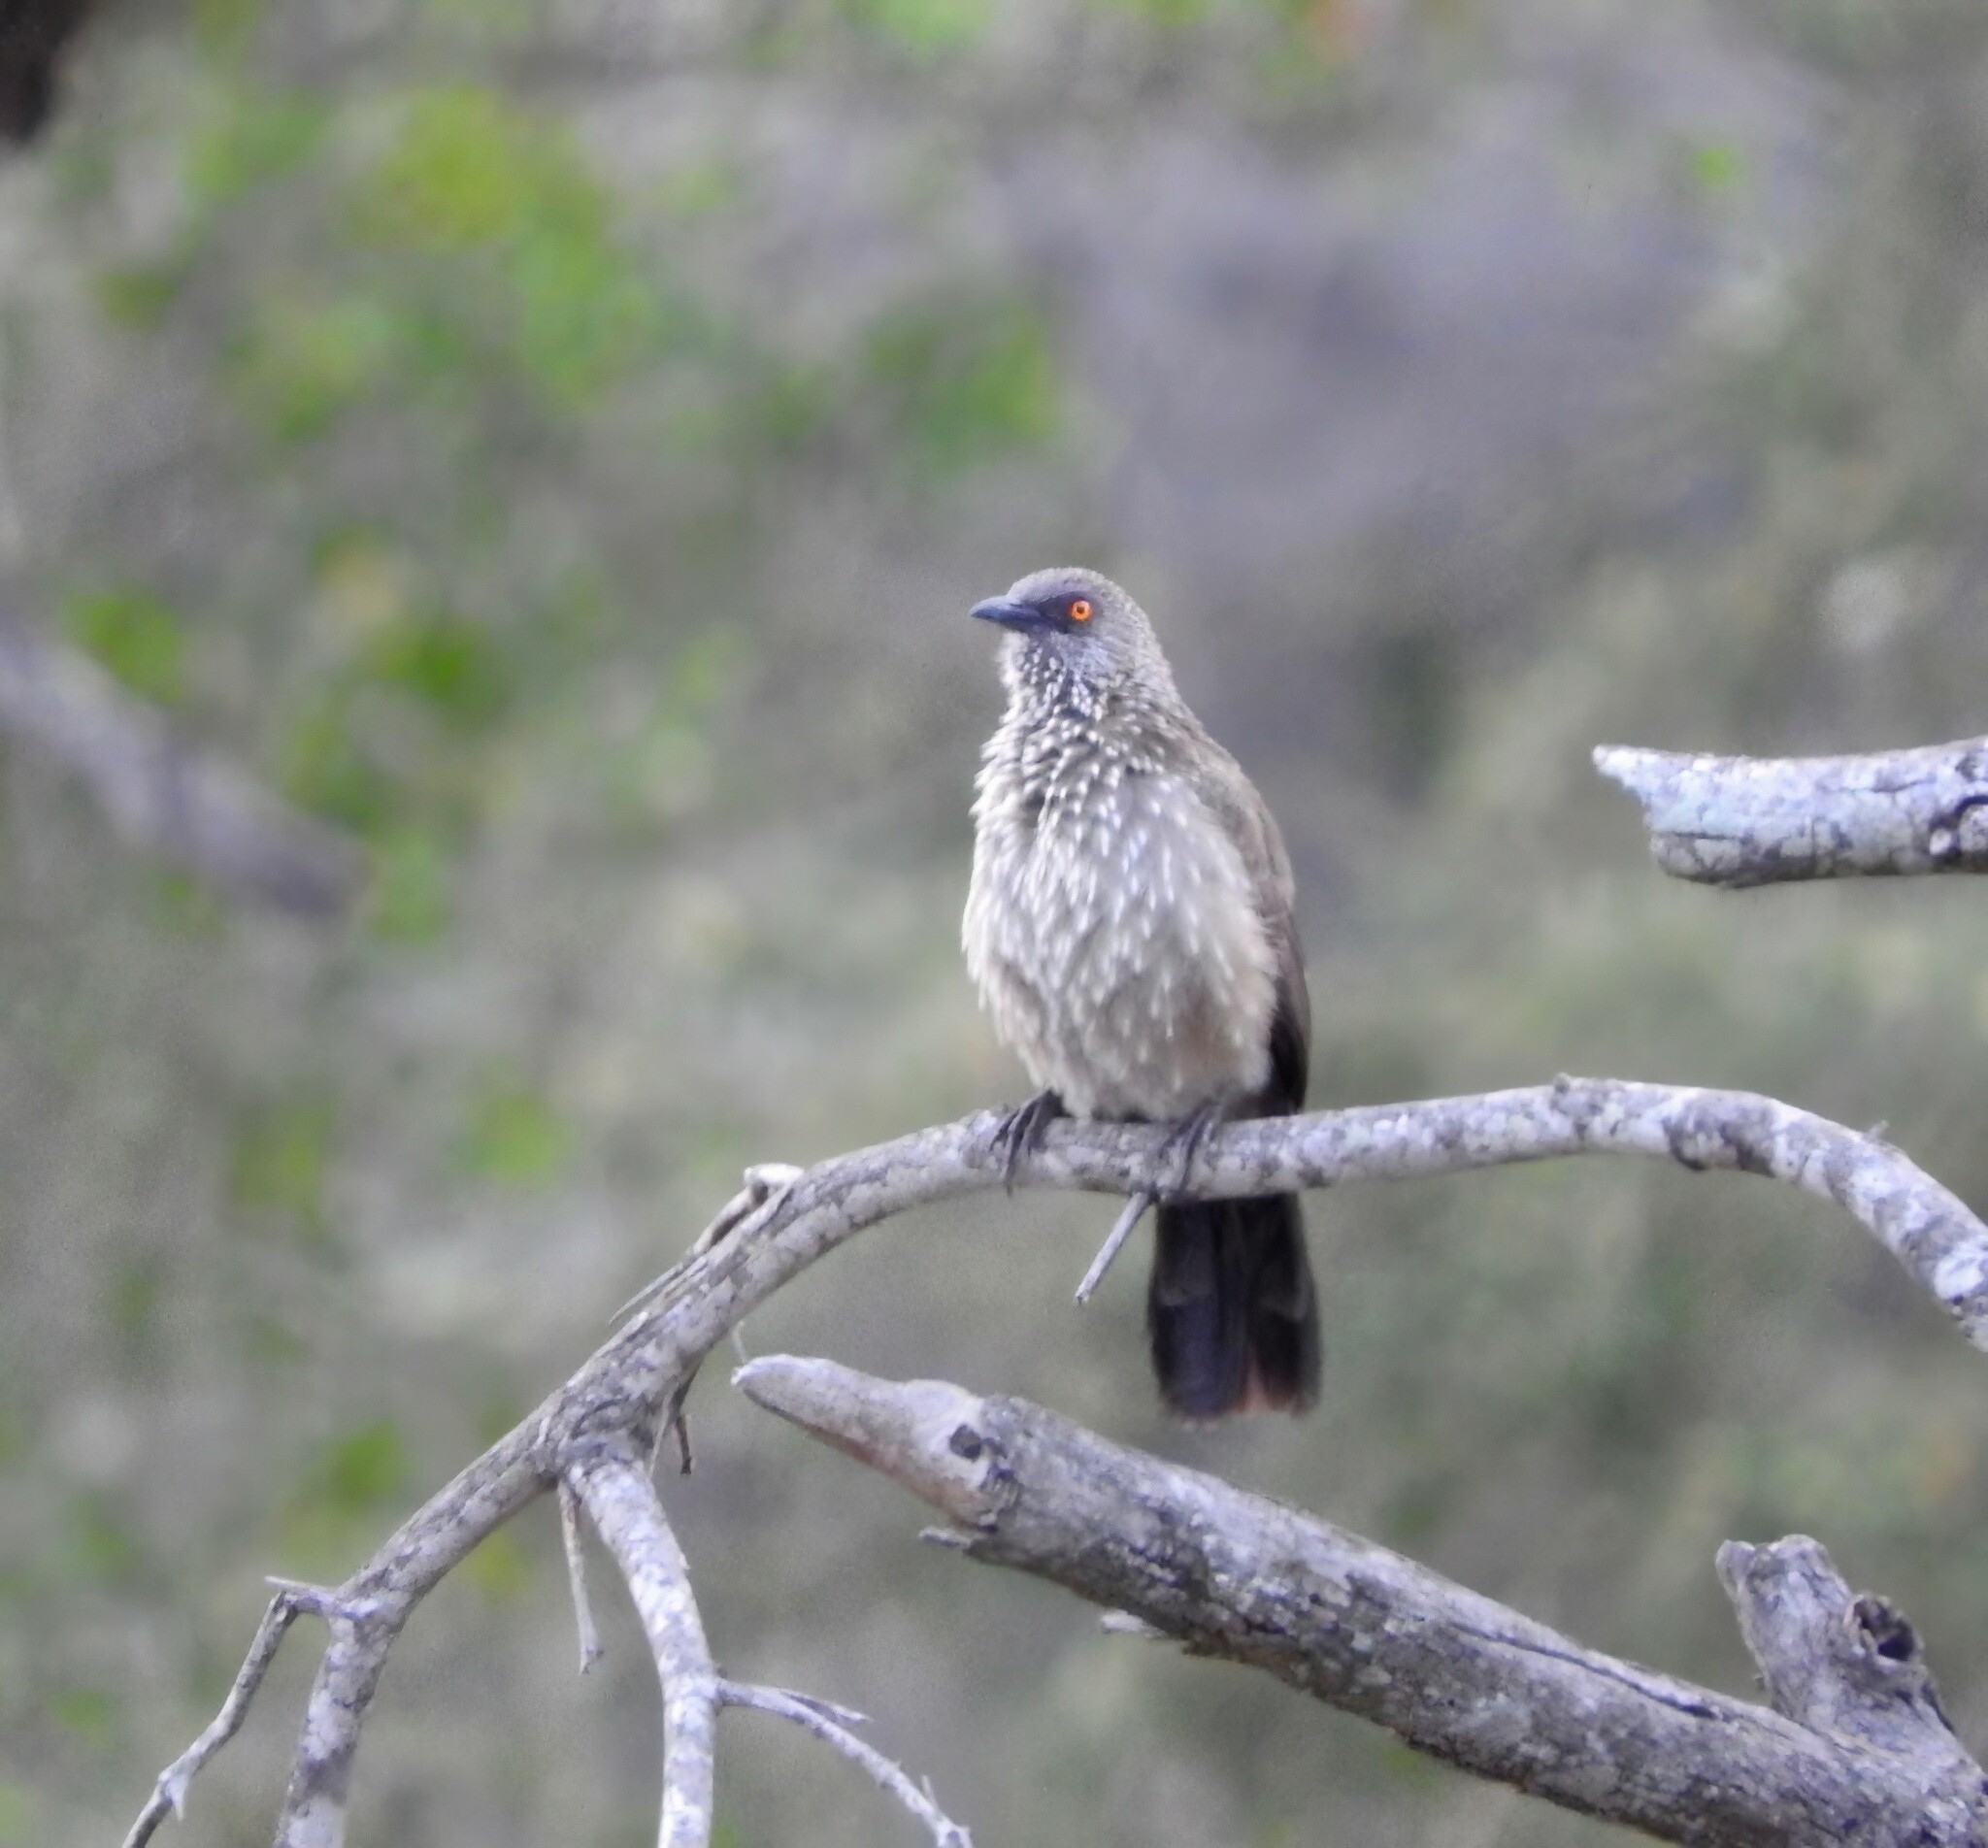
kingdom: Animalia
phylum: Chordata
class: Aves
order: Passeriformes
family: Leiothrichidae
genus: Turdoides
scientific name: Turdoides jardineii
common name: Arrow-marked babbler
